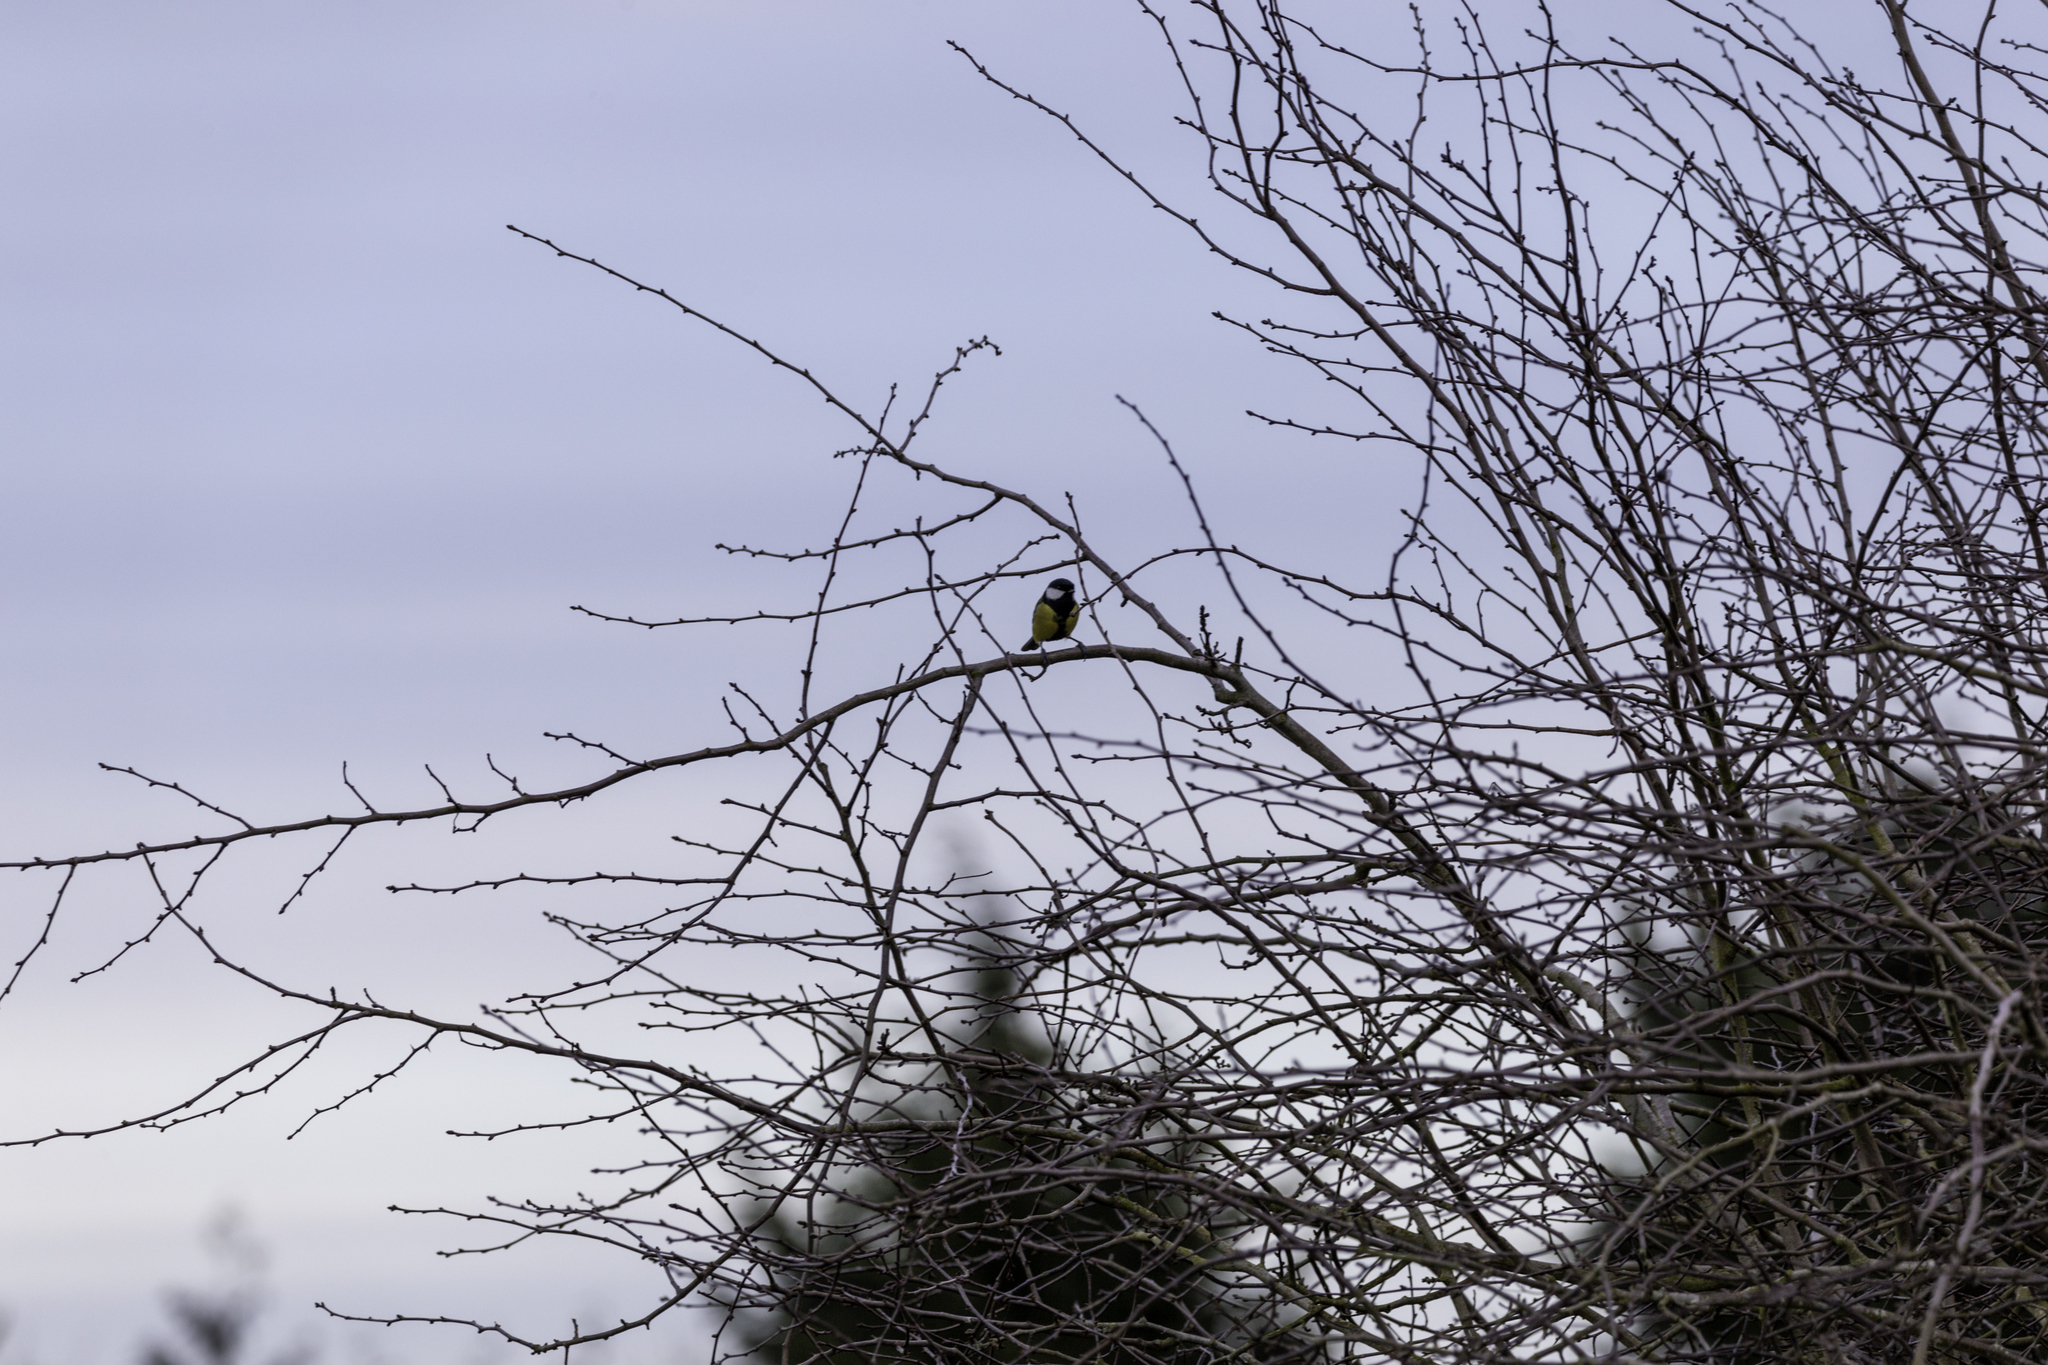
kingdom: Animalia
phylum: Chordata
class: Aves
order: Passeriformes
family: Paridae
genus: Parus
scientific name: Parus major
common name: Great tit
